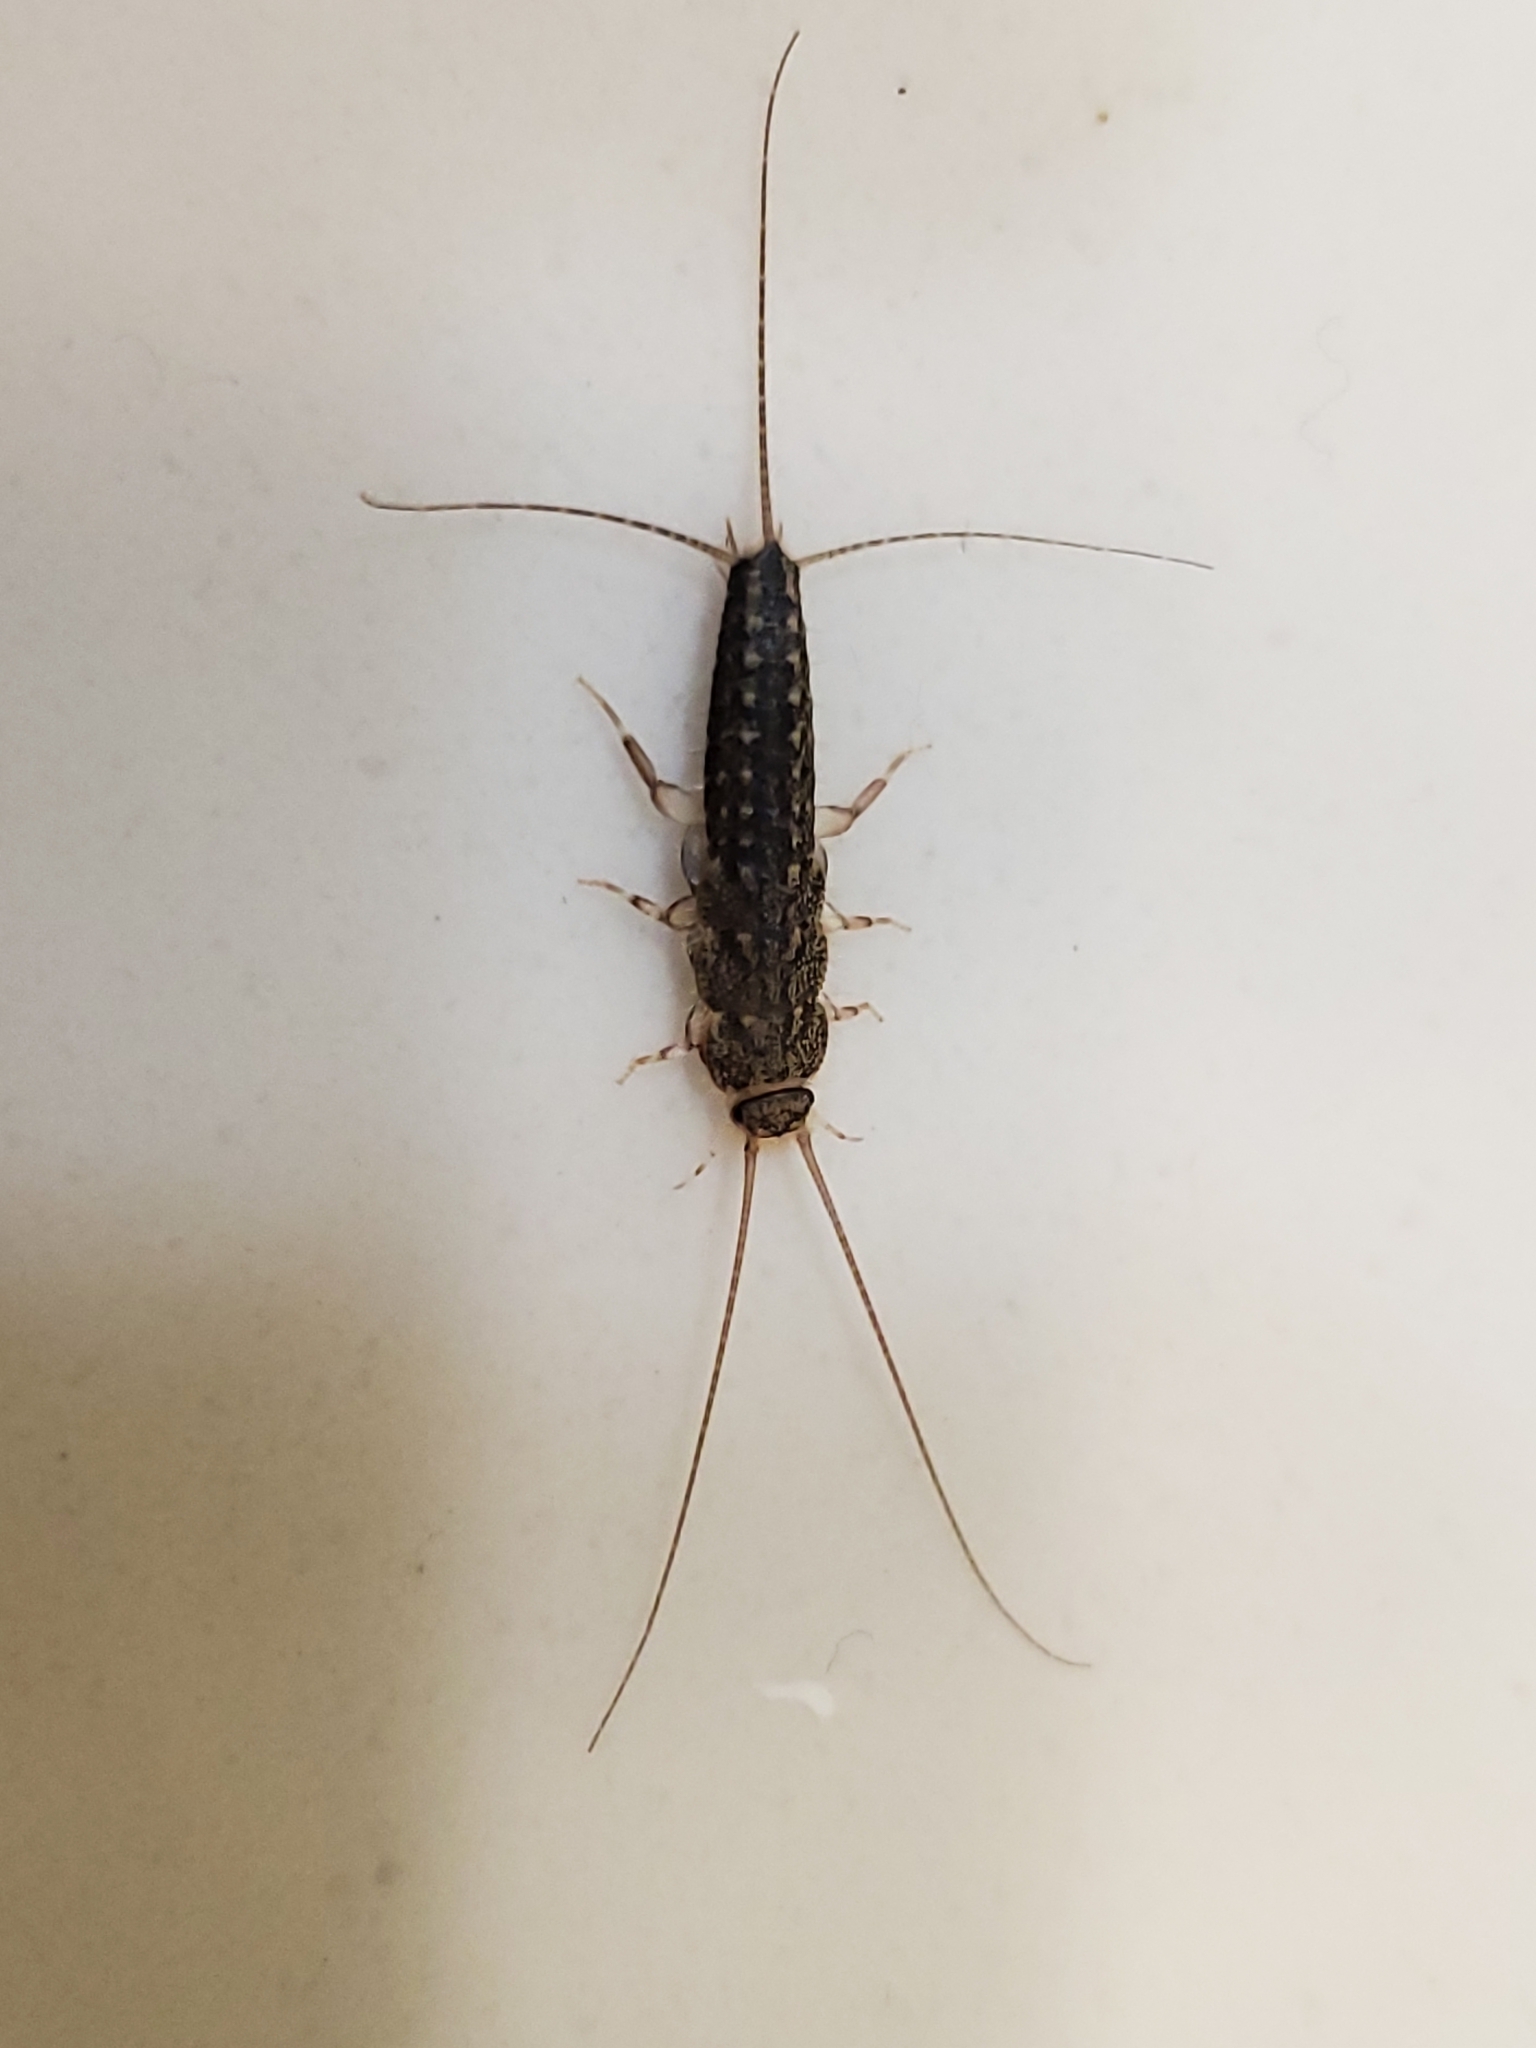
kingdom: Animalia
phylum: Arthropoda
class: Insecta
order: Zygentoma
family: Lepismatidae
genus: Ctenolepisma
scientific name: Ctenolepisma lineata
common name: Four-lined silverfish
